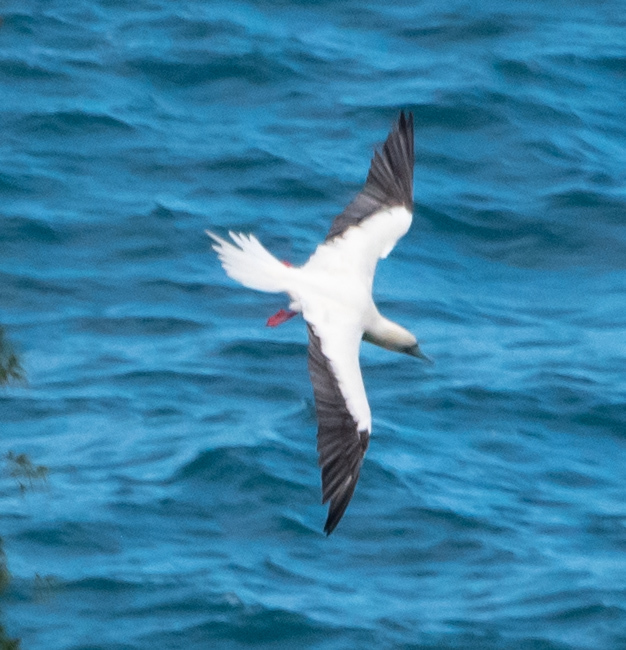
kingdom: Animalia
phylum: Chordata
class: Aves
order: Suliformes
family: Sulidae
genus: Sula
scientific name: Sula sula
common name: Red-footed booby
